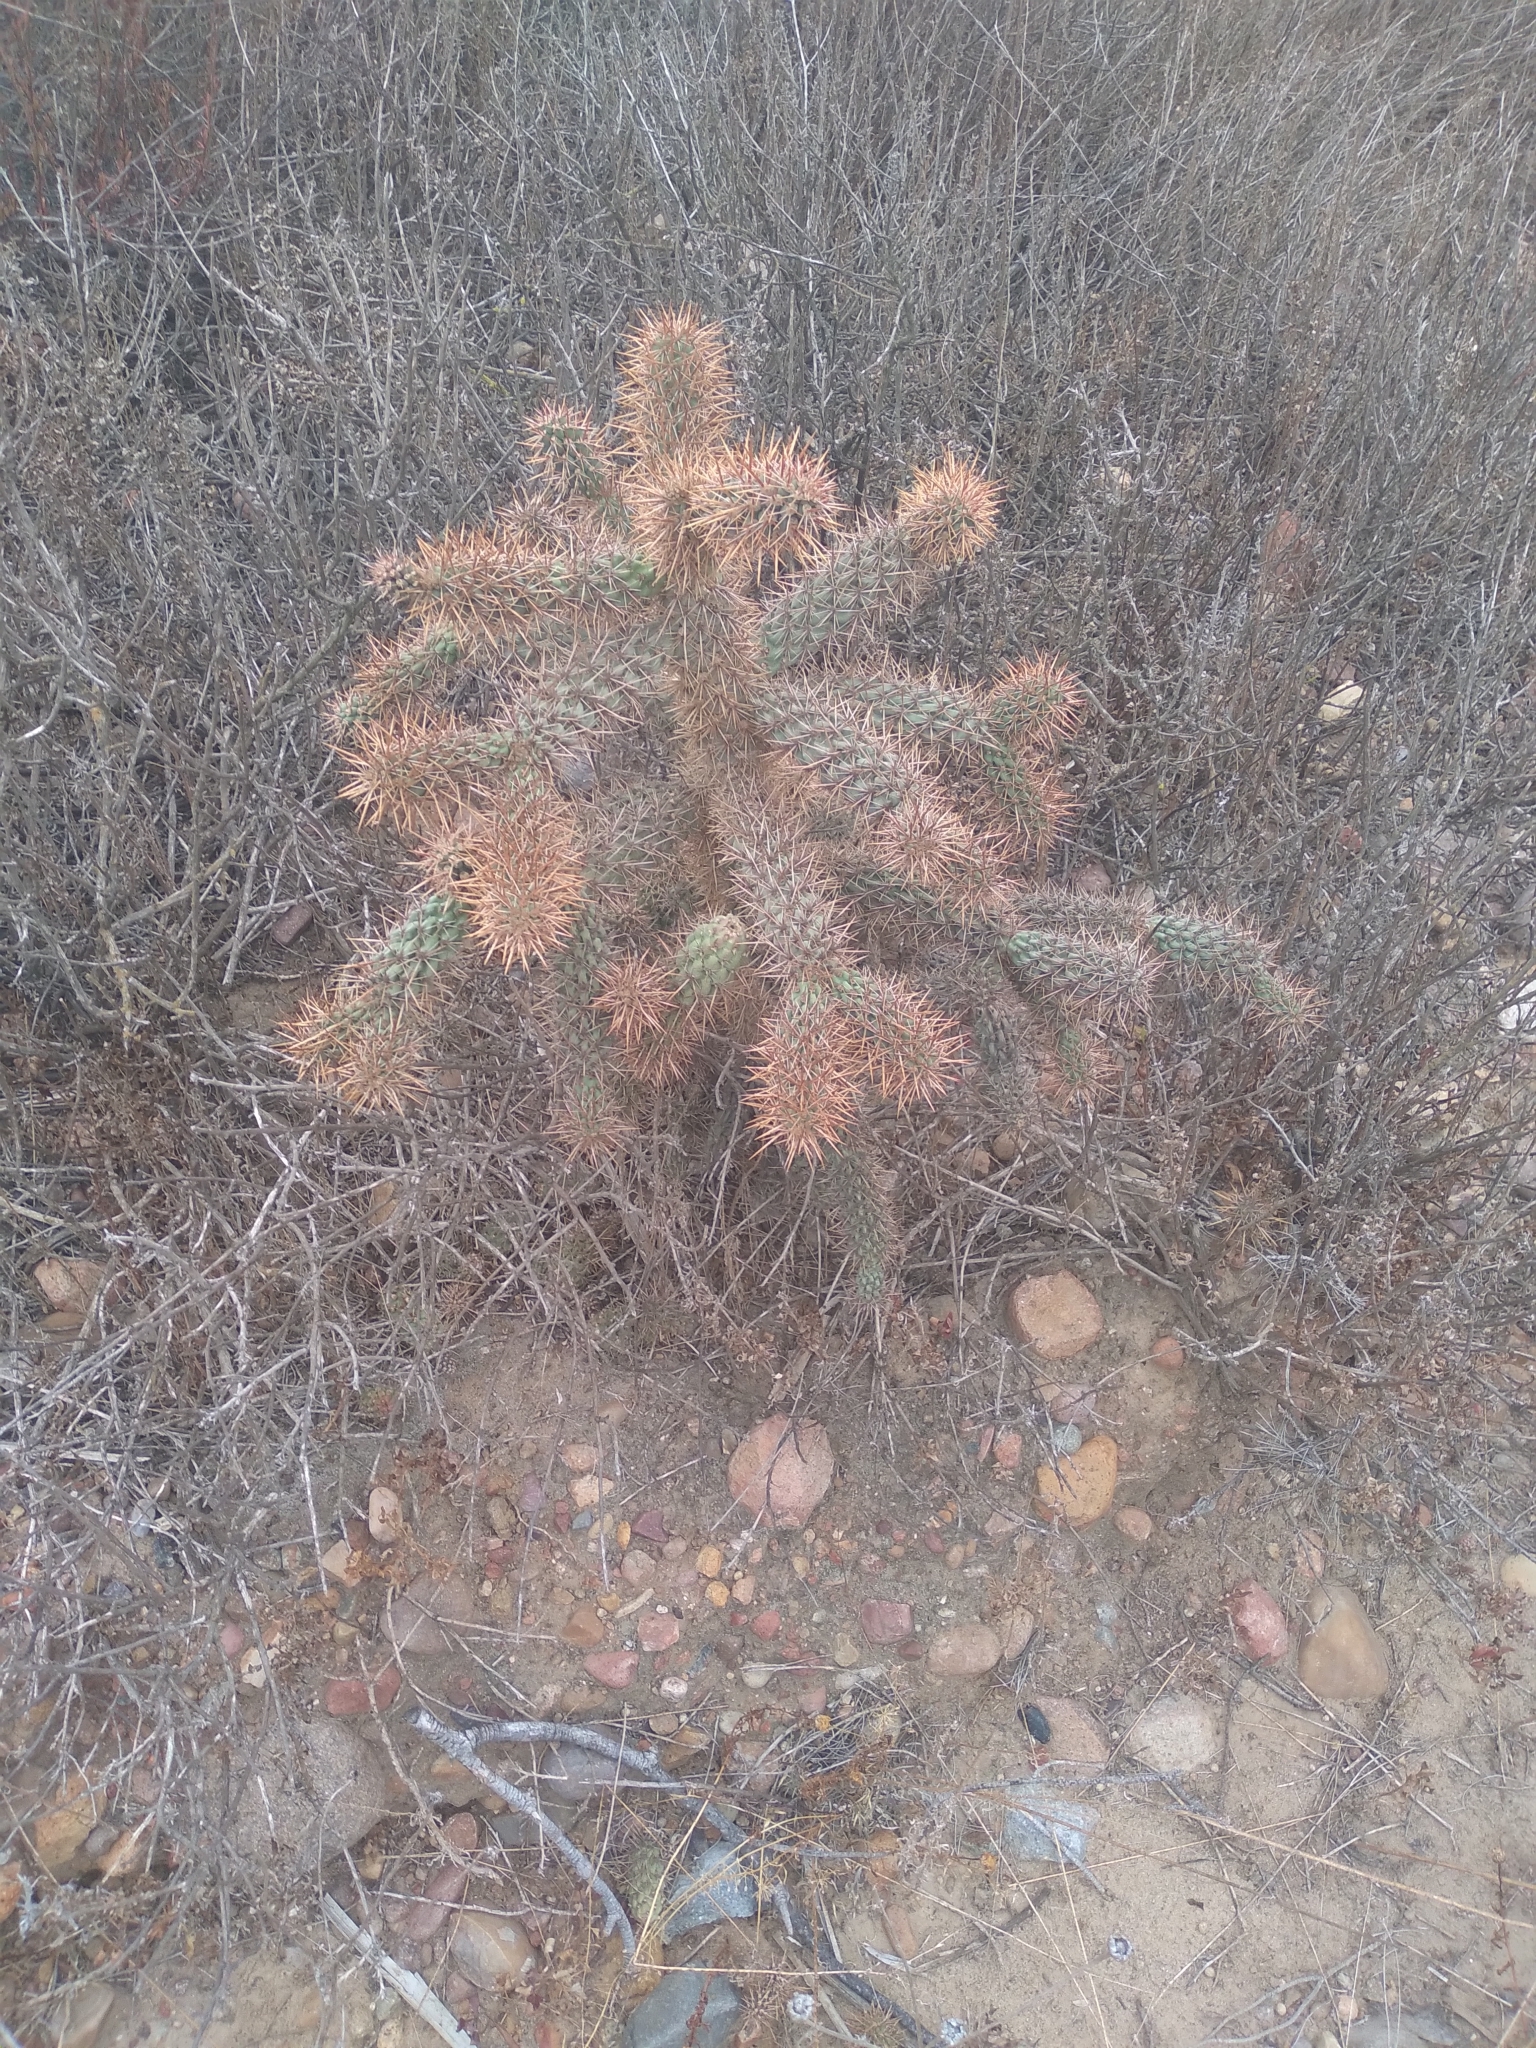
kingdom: Plantae
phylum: Tracheophyta
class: Magnoliopsida
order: Caryophyllales
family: Cactaceae
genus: Cylindropuntia
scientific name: Cylindropuntia prolifera
